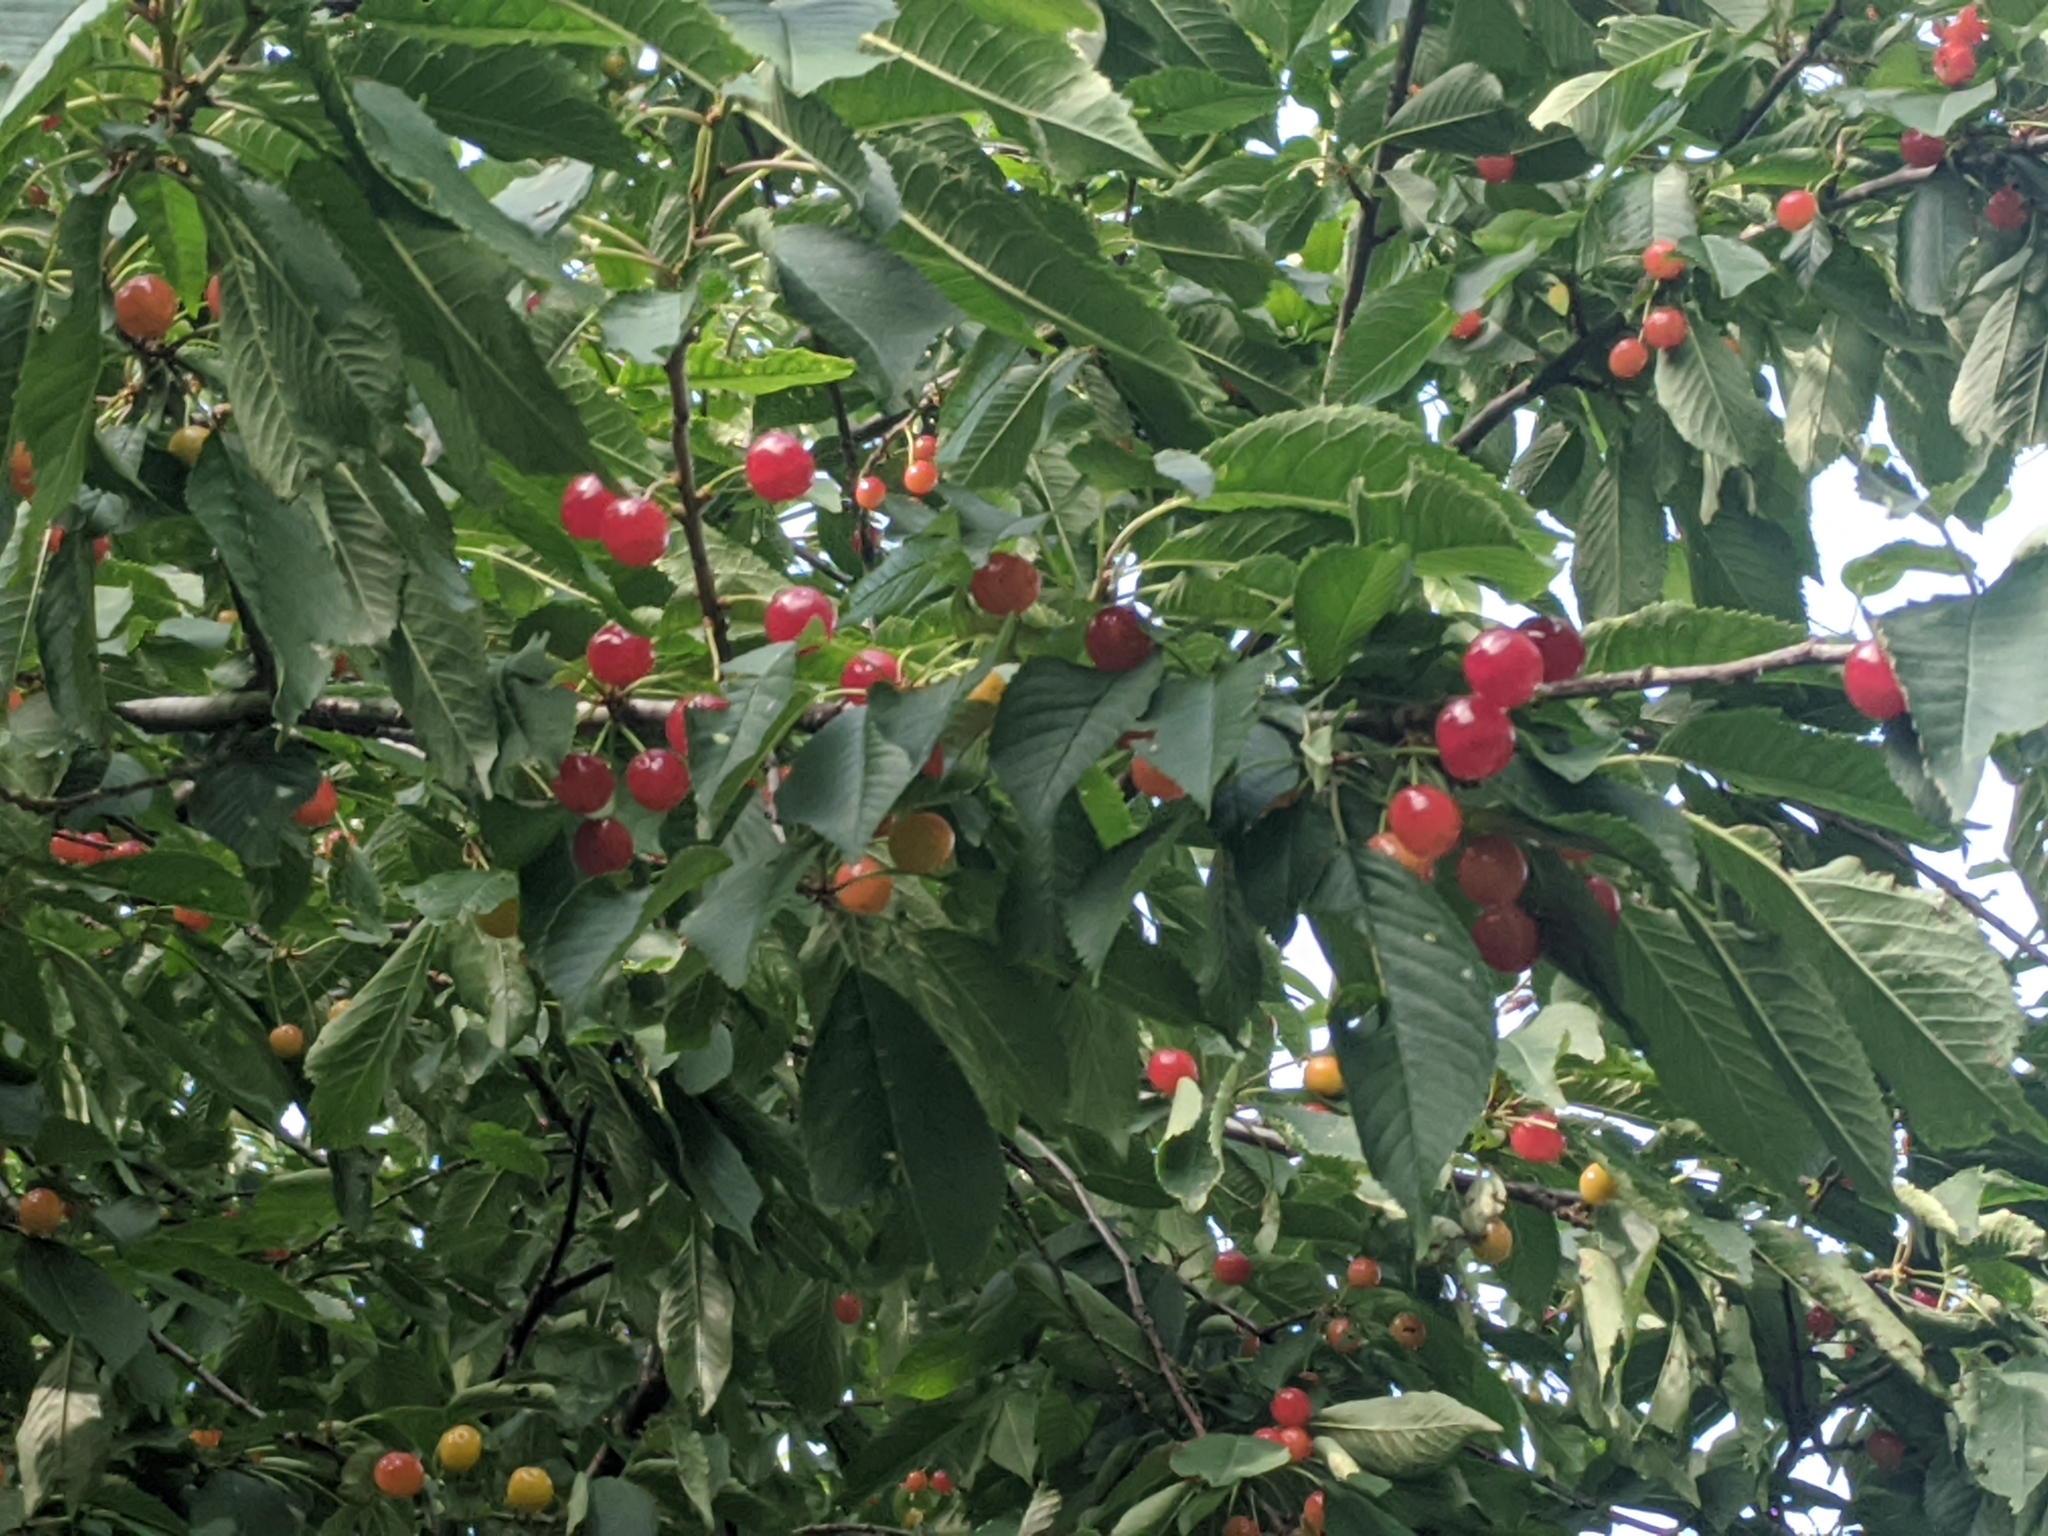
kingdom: Plantae
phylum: Tracheophyta
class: Magnoliopsida
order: Rosales
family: Rosaceae
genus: Prunus
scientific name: Prunus avium
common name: Sweet cherry
